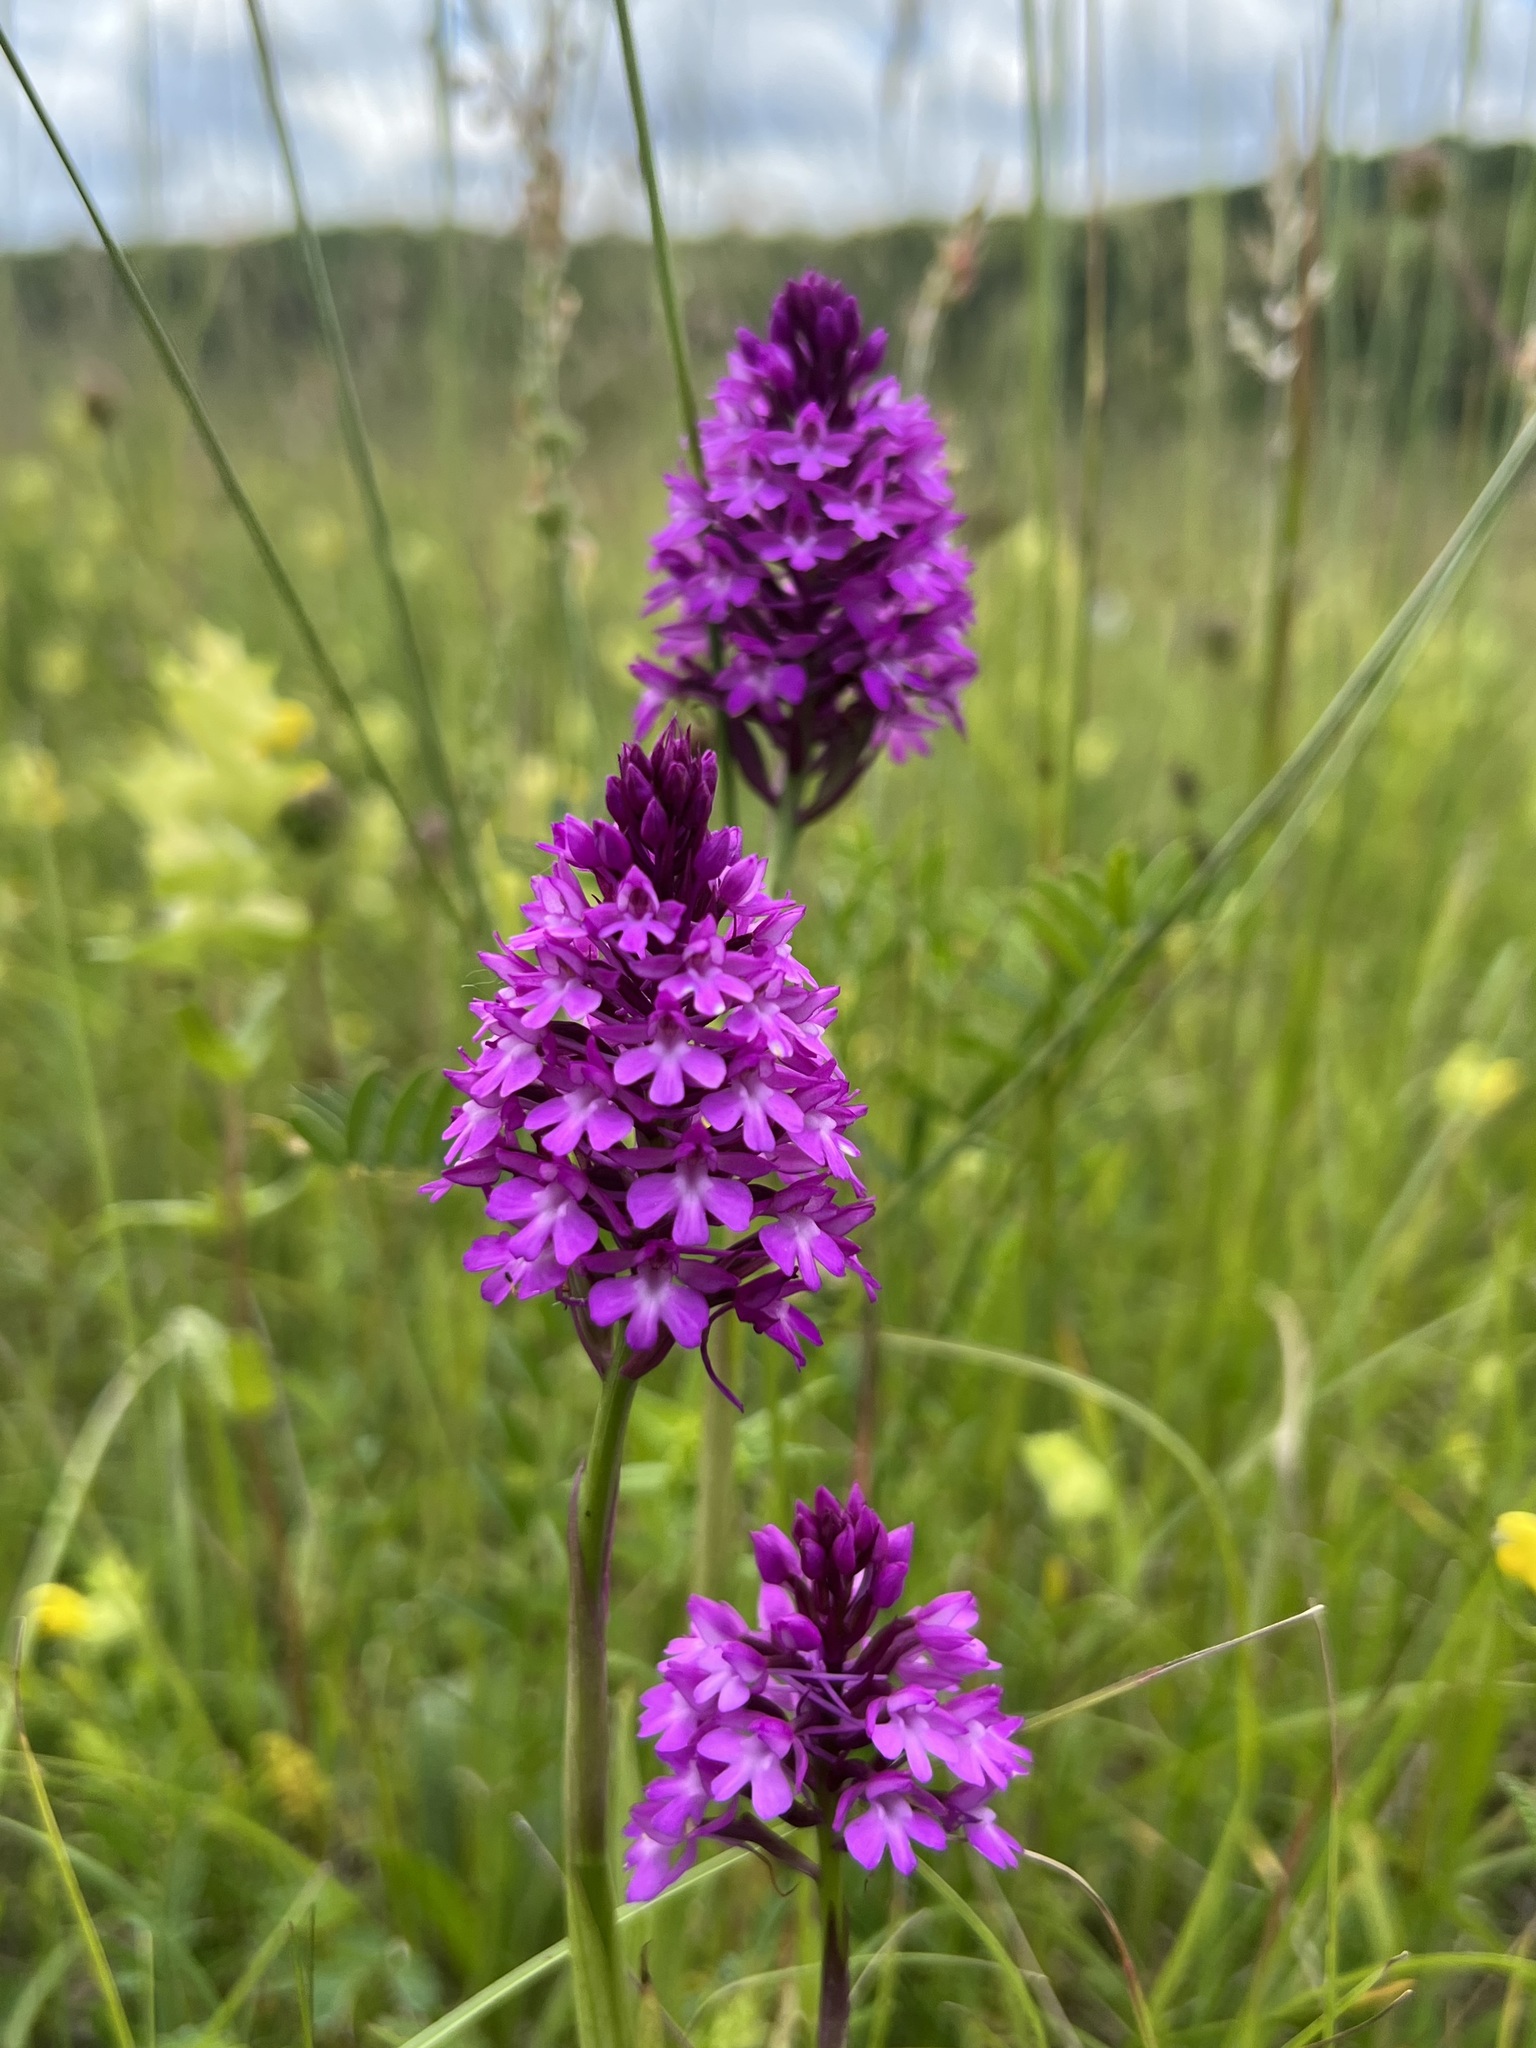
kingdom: Plantae
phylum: Tracheophyta
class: Liliopsida
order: Asparagales
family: Orchidaceae
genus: Anacamptis
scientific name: Anacamptis pyramidalis
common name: Pyramidal orchid
